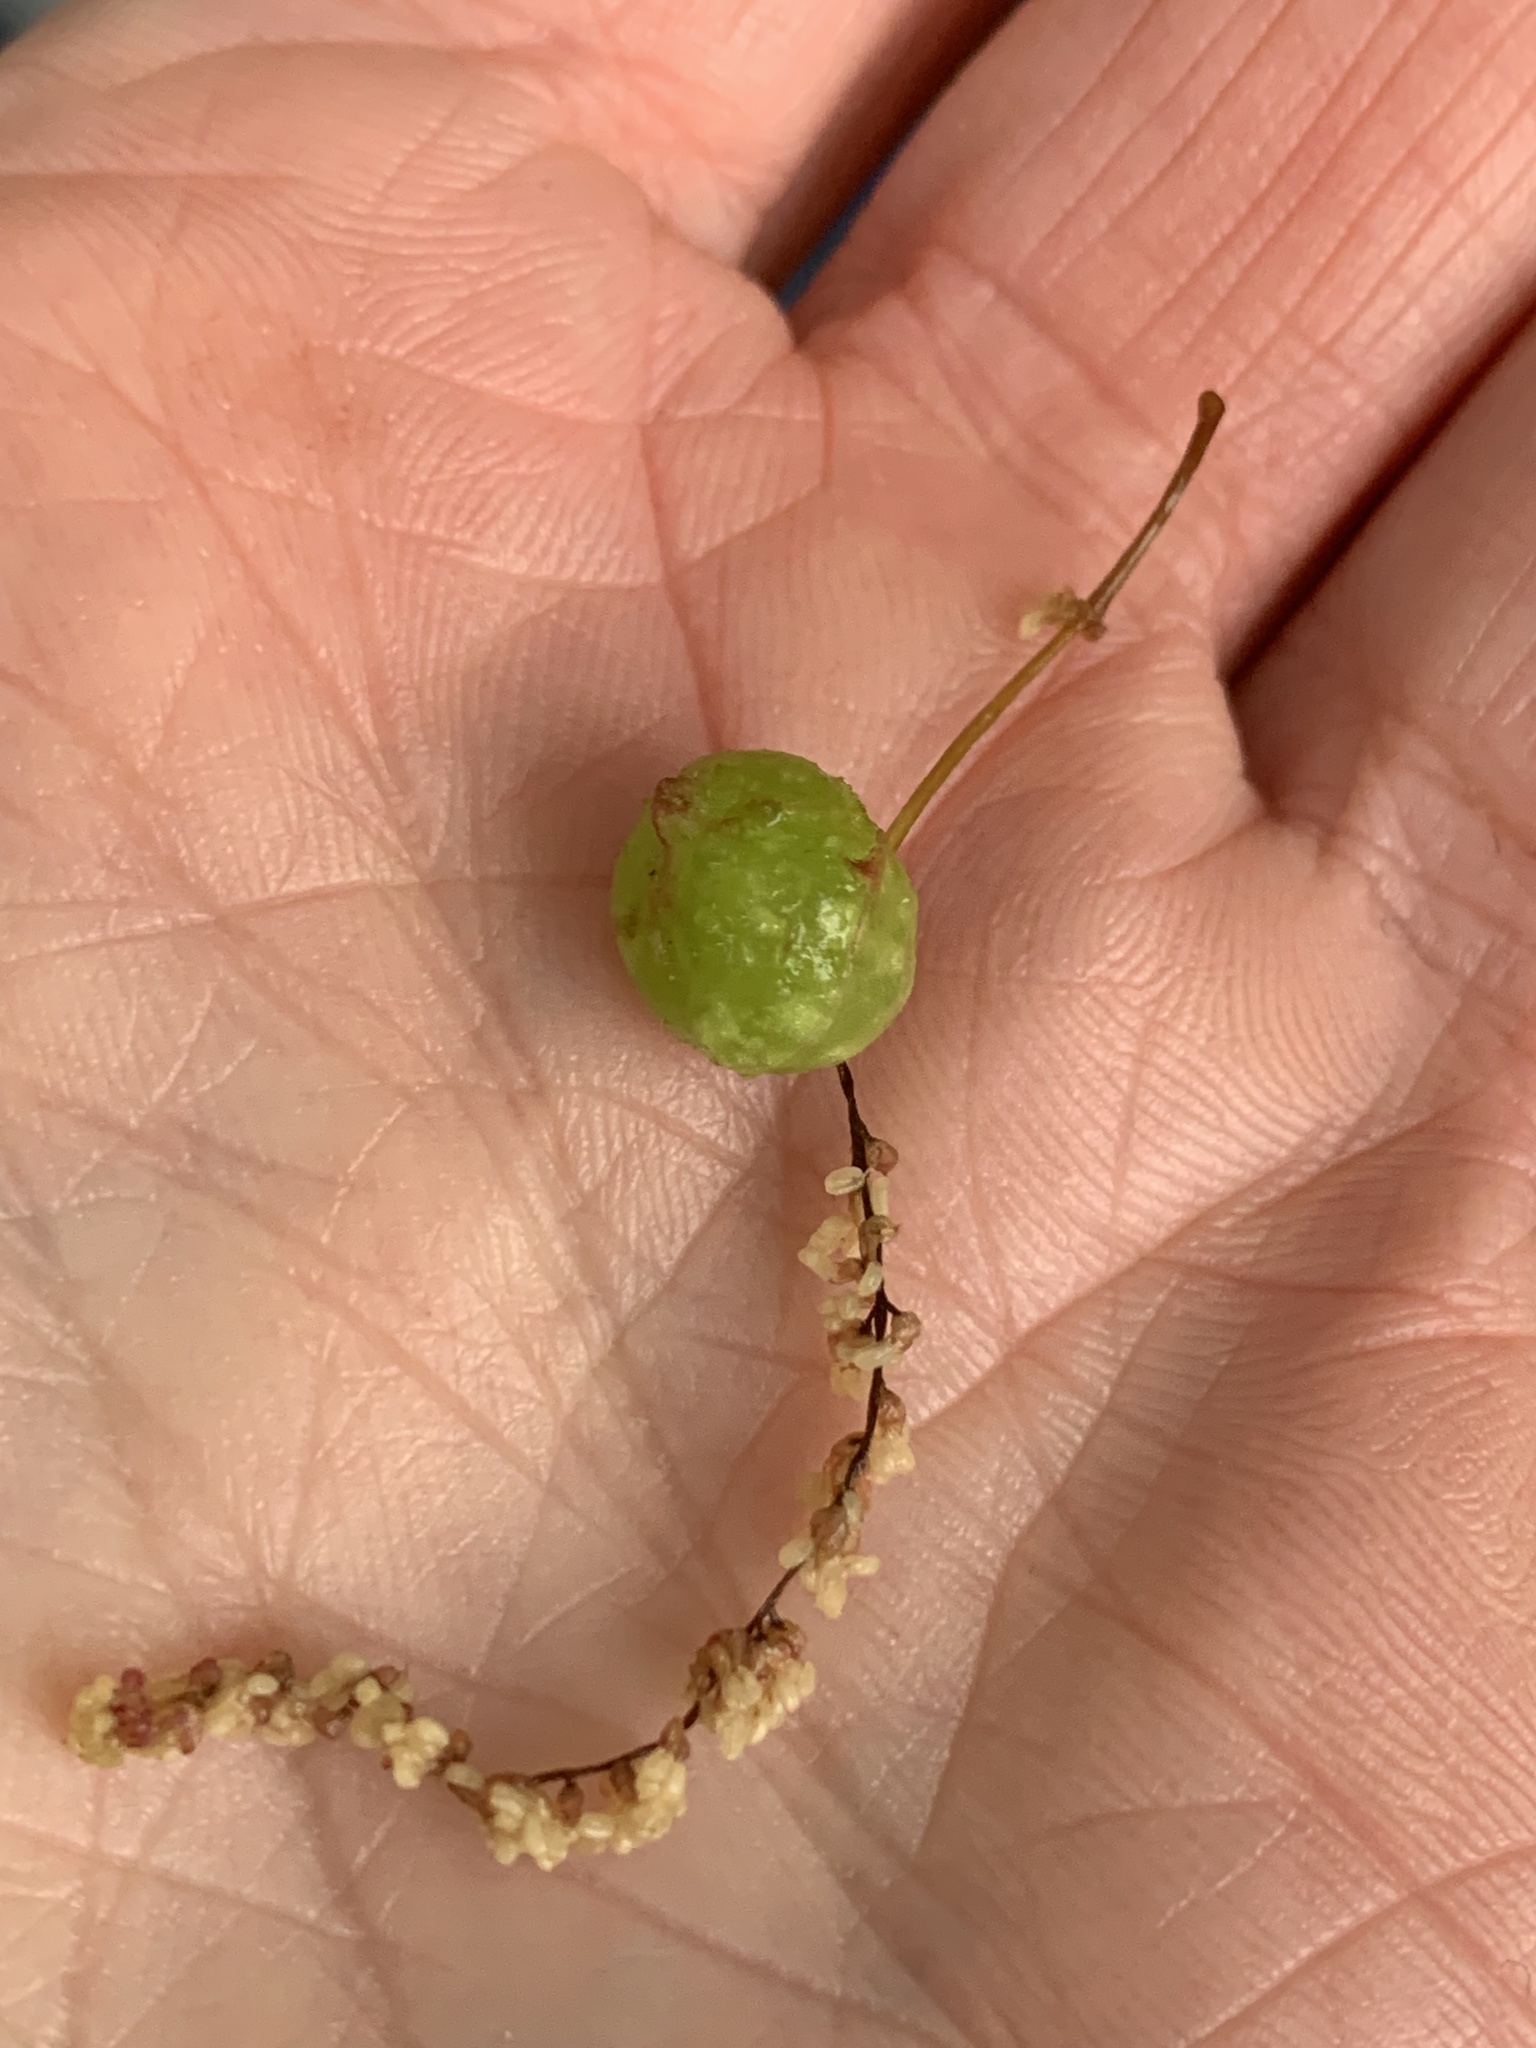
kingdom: Animalia
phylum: Arthropoda
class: Insecta
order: Hymenoptera
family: Cynipidae
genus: Dryocosmus
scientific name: Dryocosmus quercuspalustris
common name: Succulent oak gall wasp
